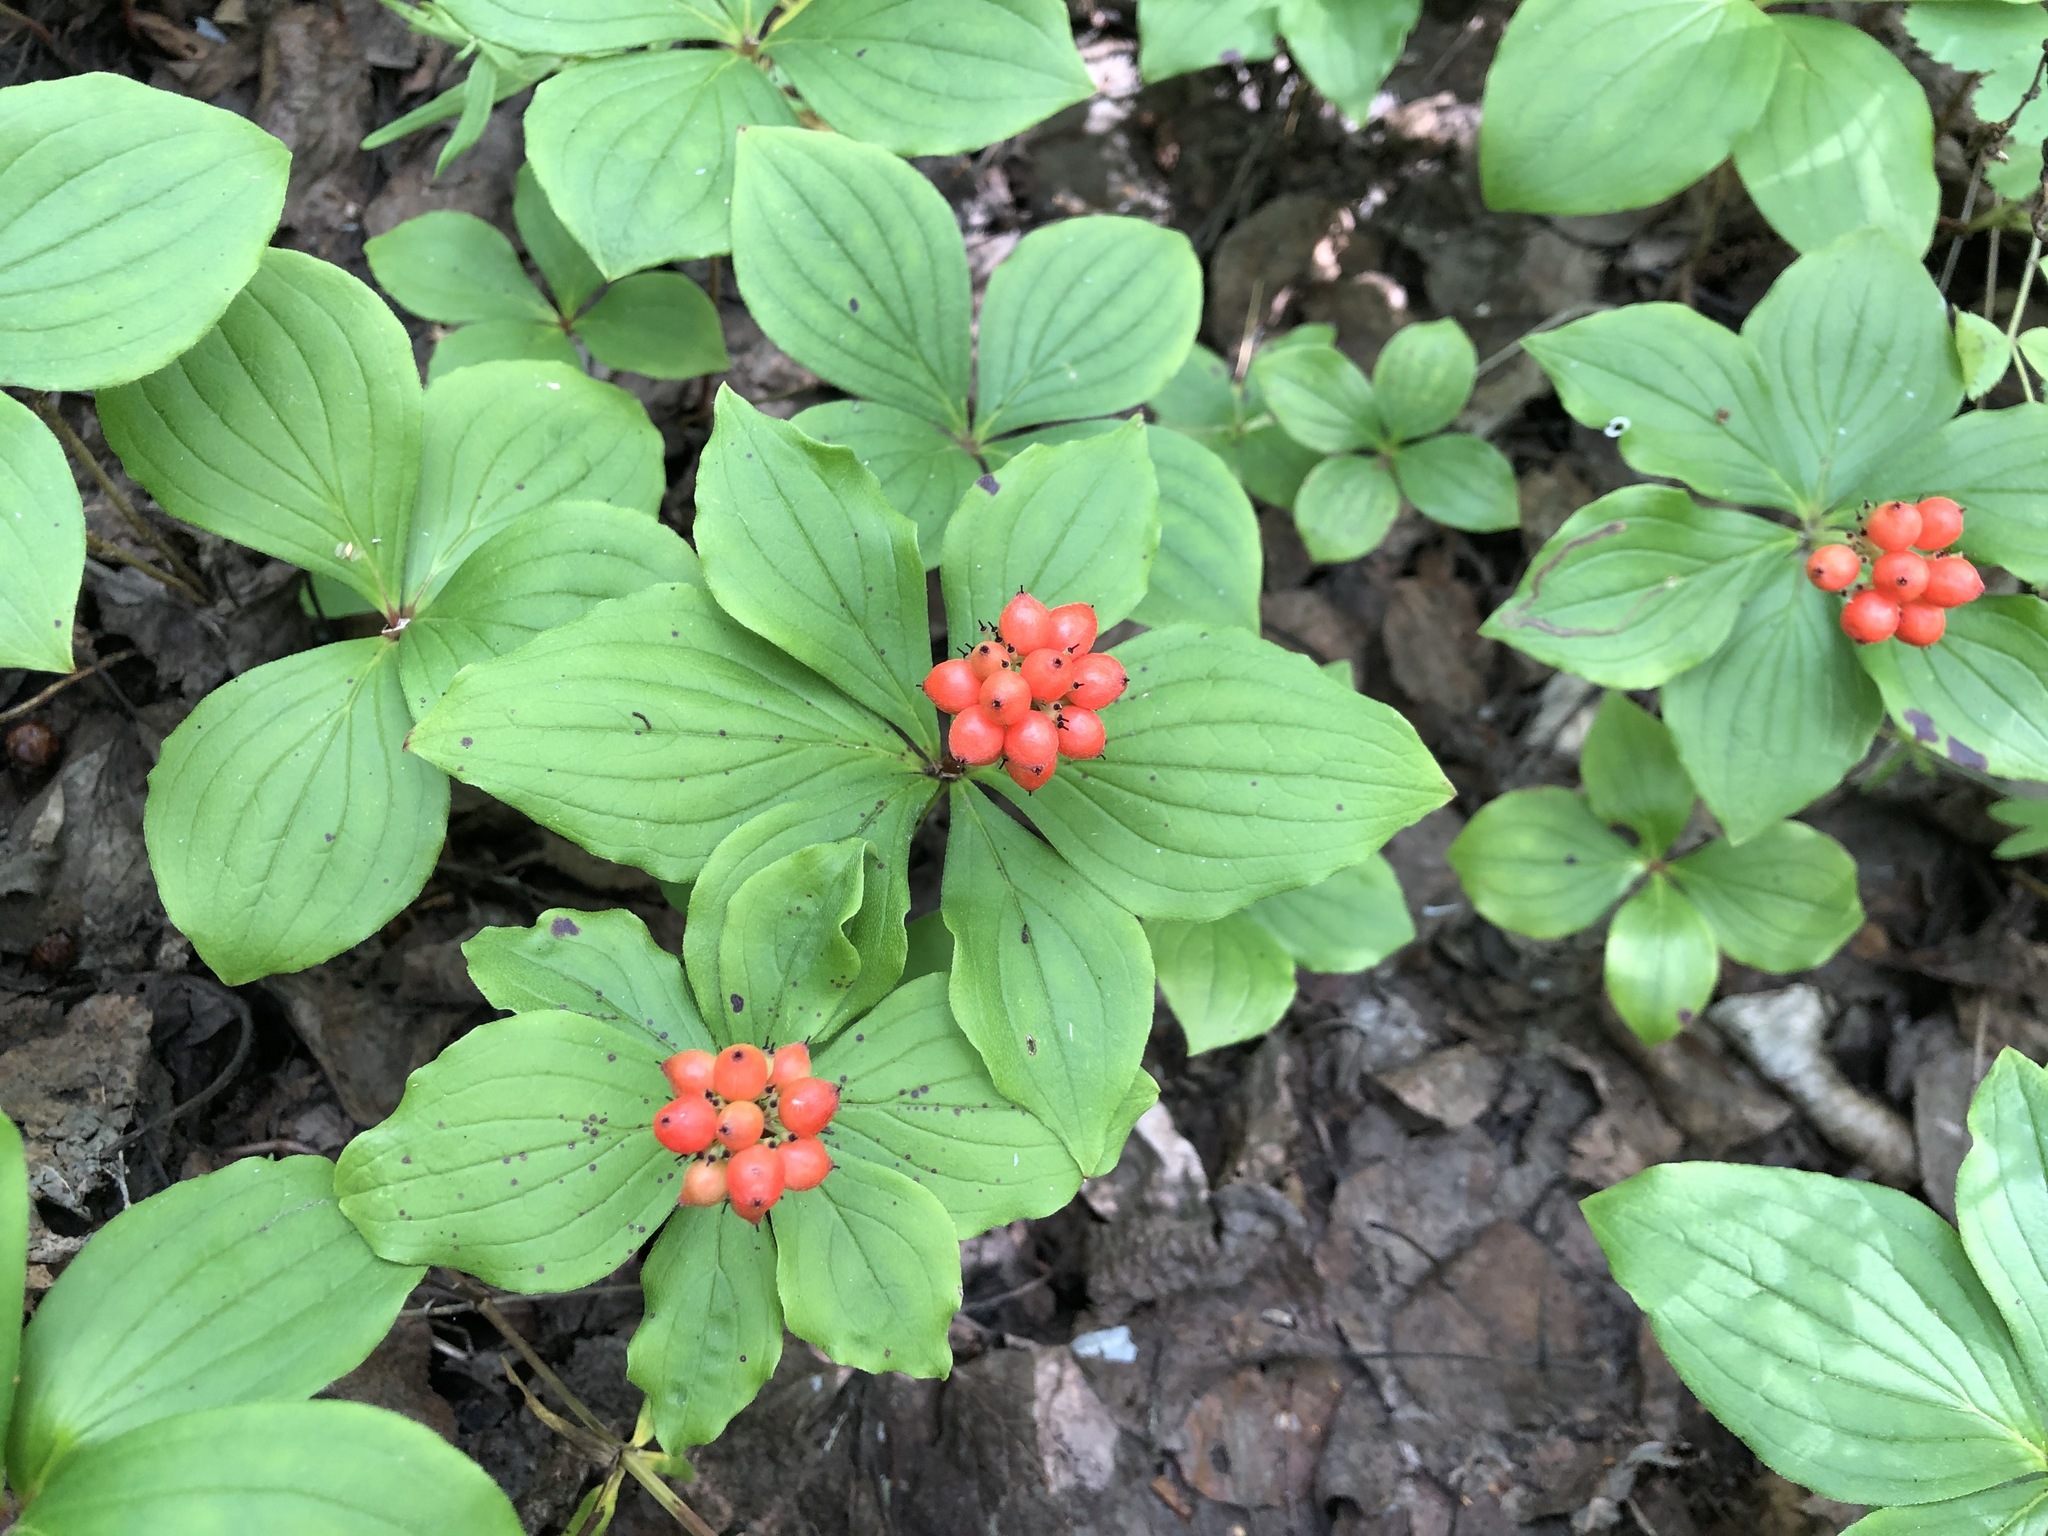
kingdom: Plantae
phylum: Tracheophyta
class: Magnoliopsida
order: Cornales
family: Cornaceae
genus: Cornus
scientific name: Cornus canadensis
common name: Creeping dogwood
